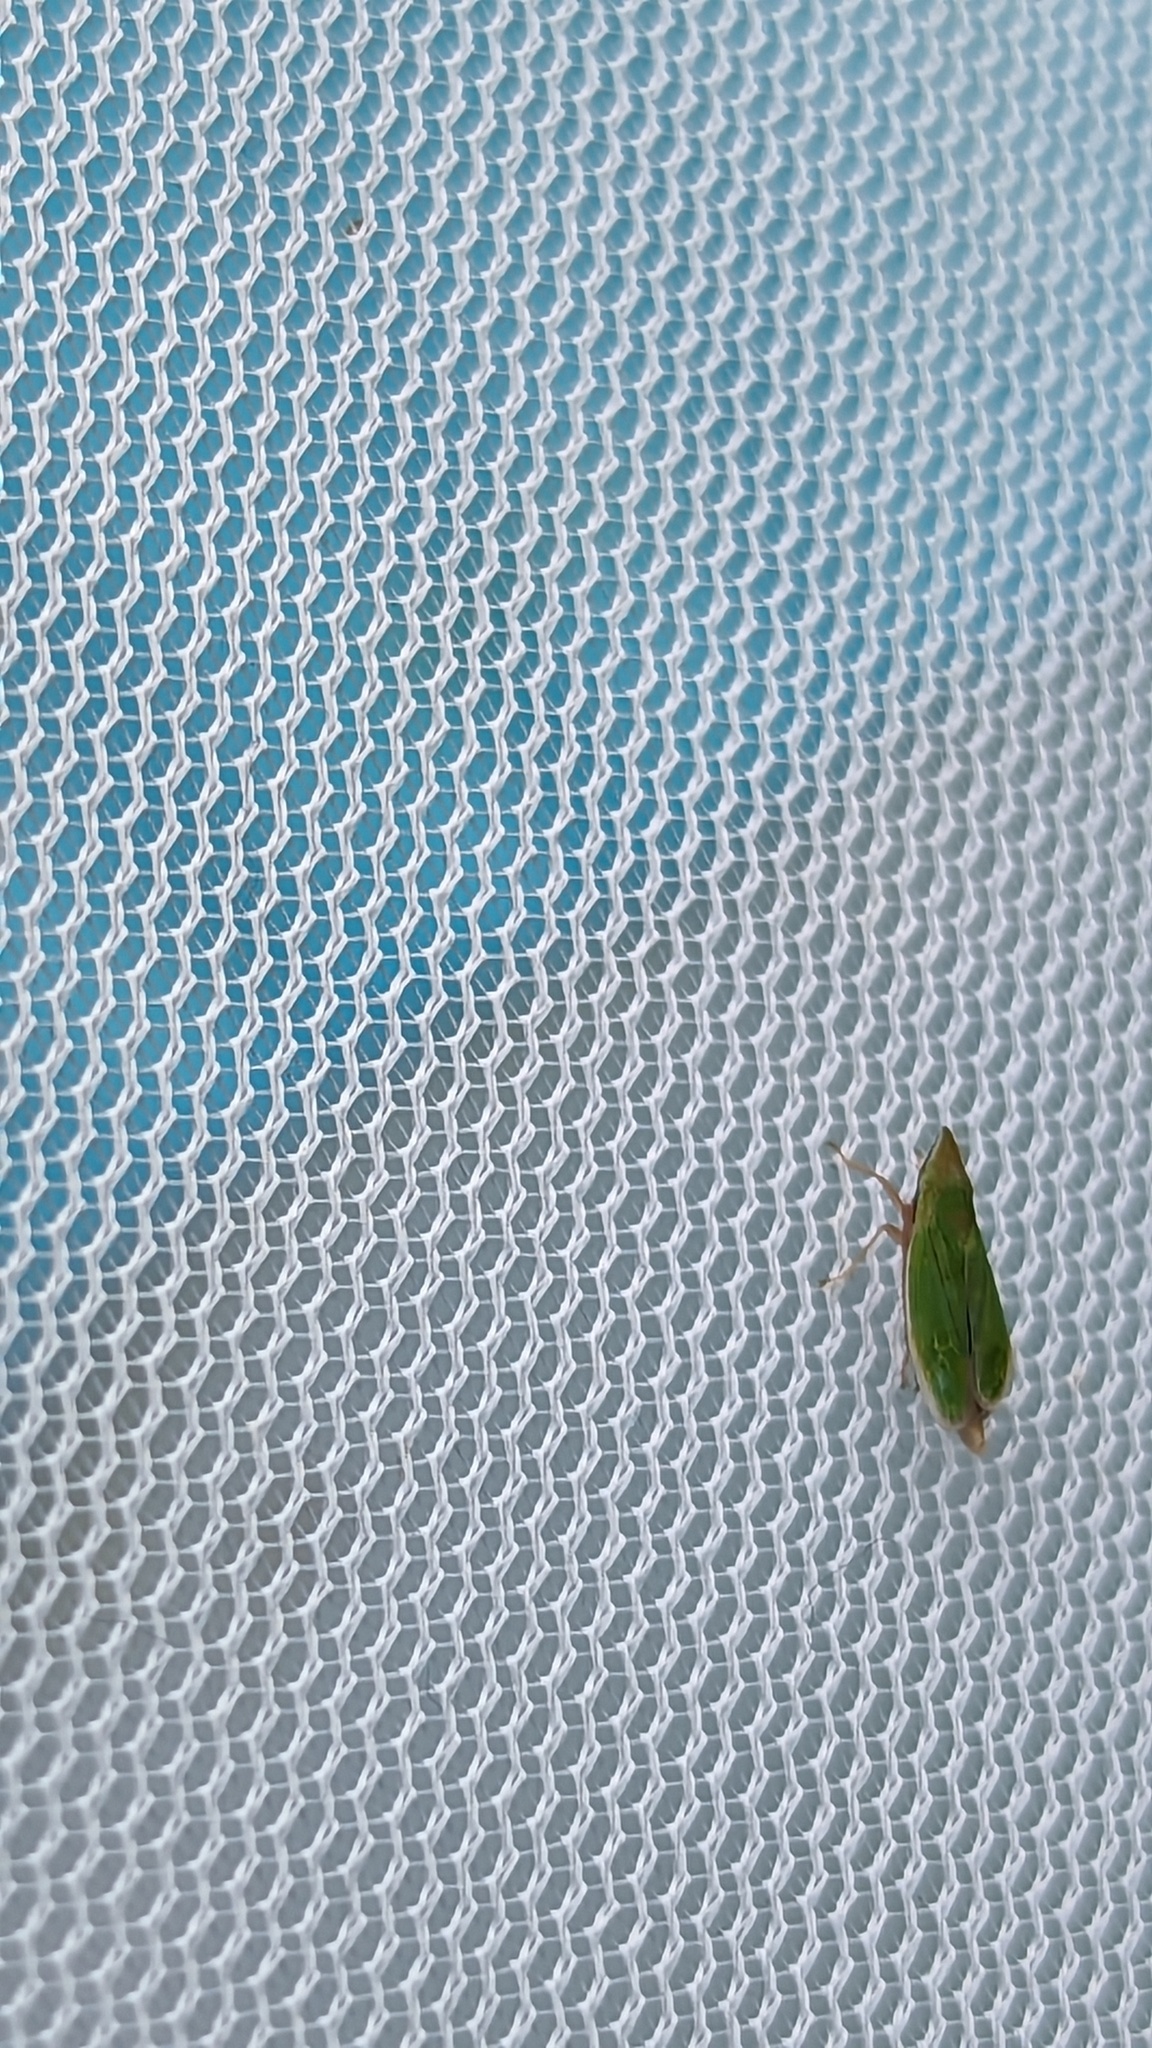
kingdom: Animalia
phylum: Arthropoda
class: Insecta
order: Hemiptera
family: Cicadellidae
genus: Draeculacephala
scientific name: Draeculacephala antica
